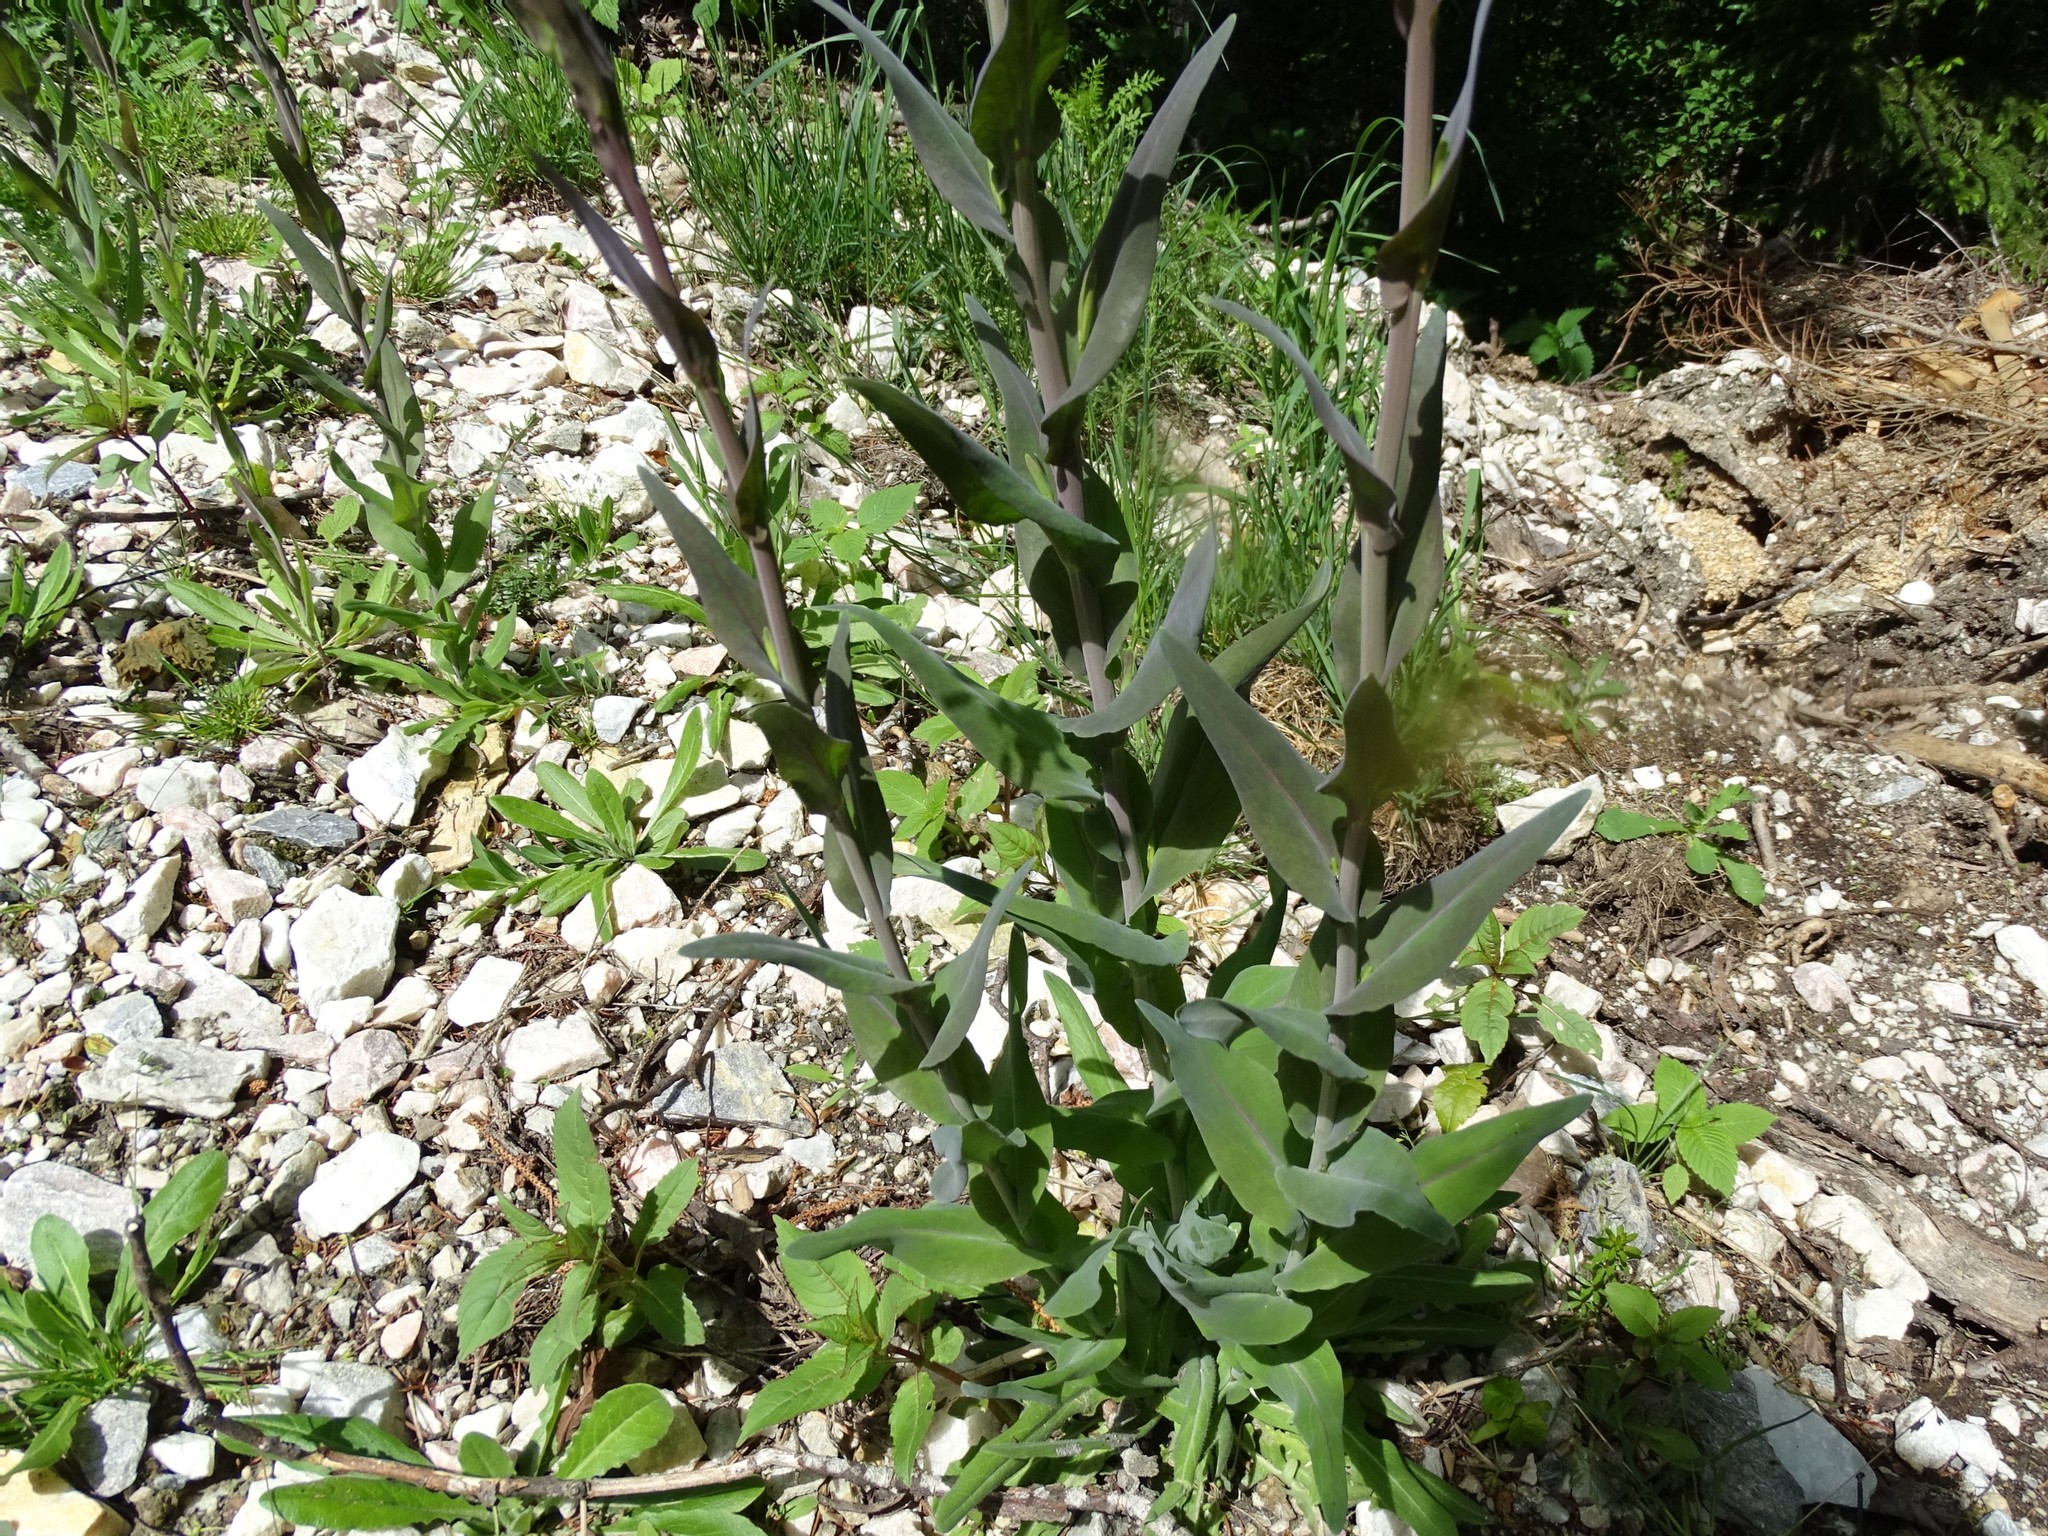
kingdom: Plantae
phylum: Tracheophyta
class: Magnoliopsida
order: Brassicales
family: Brassicaceae
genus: Turritis
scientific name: Turritis glabra
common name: Tower rockcress
